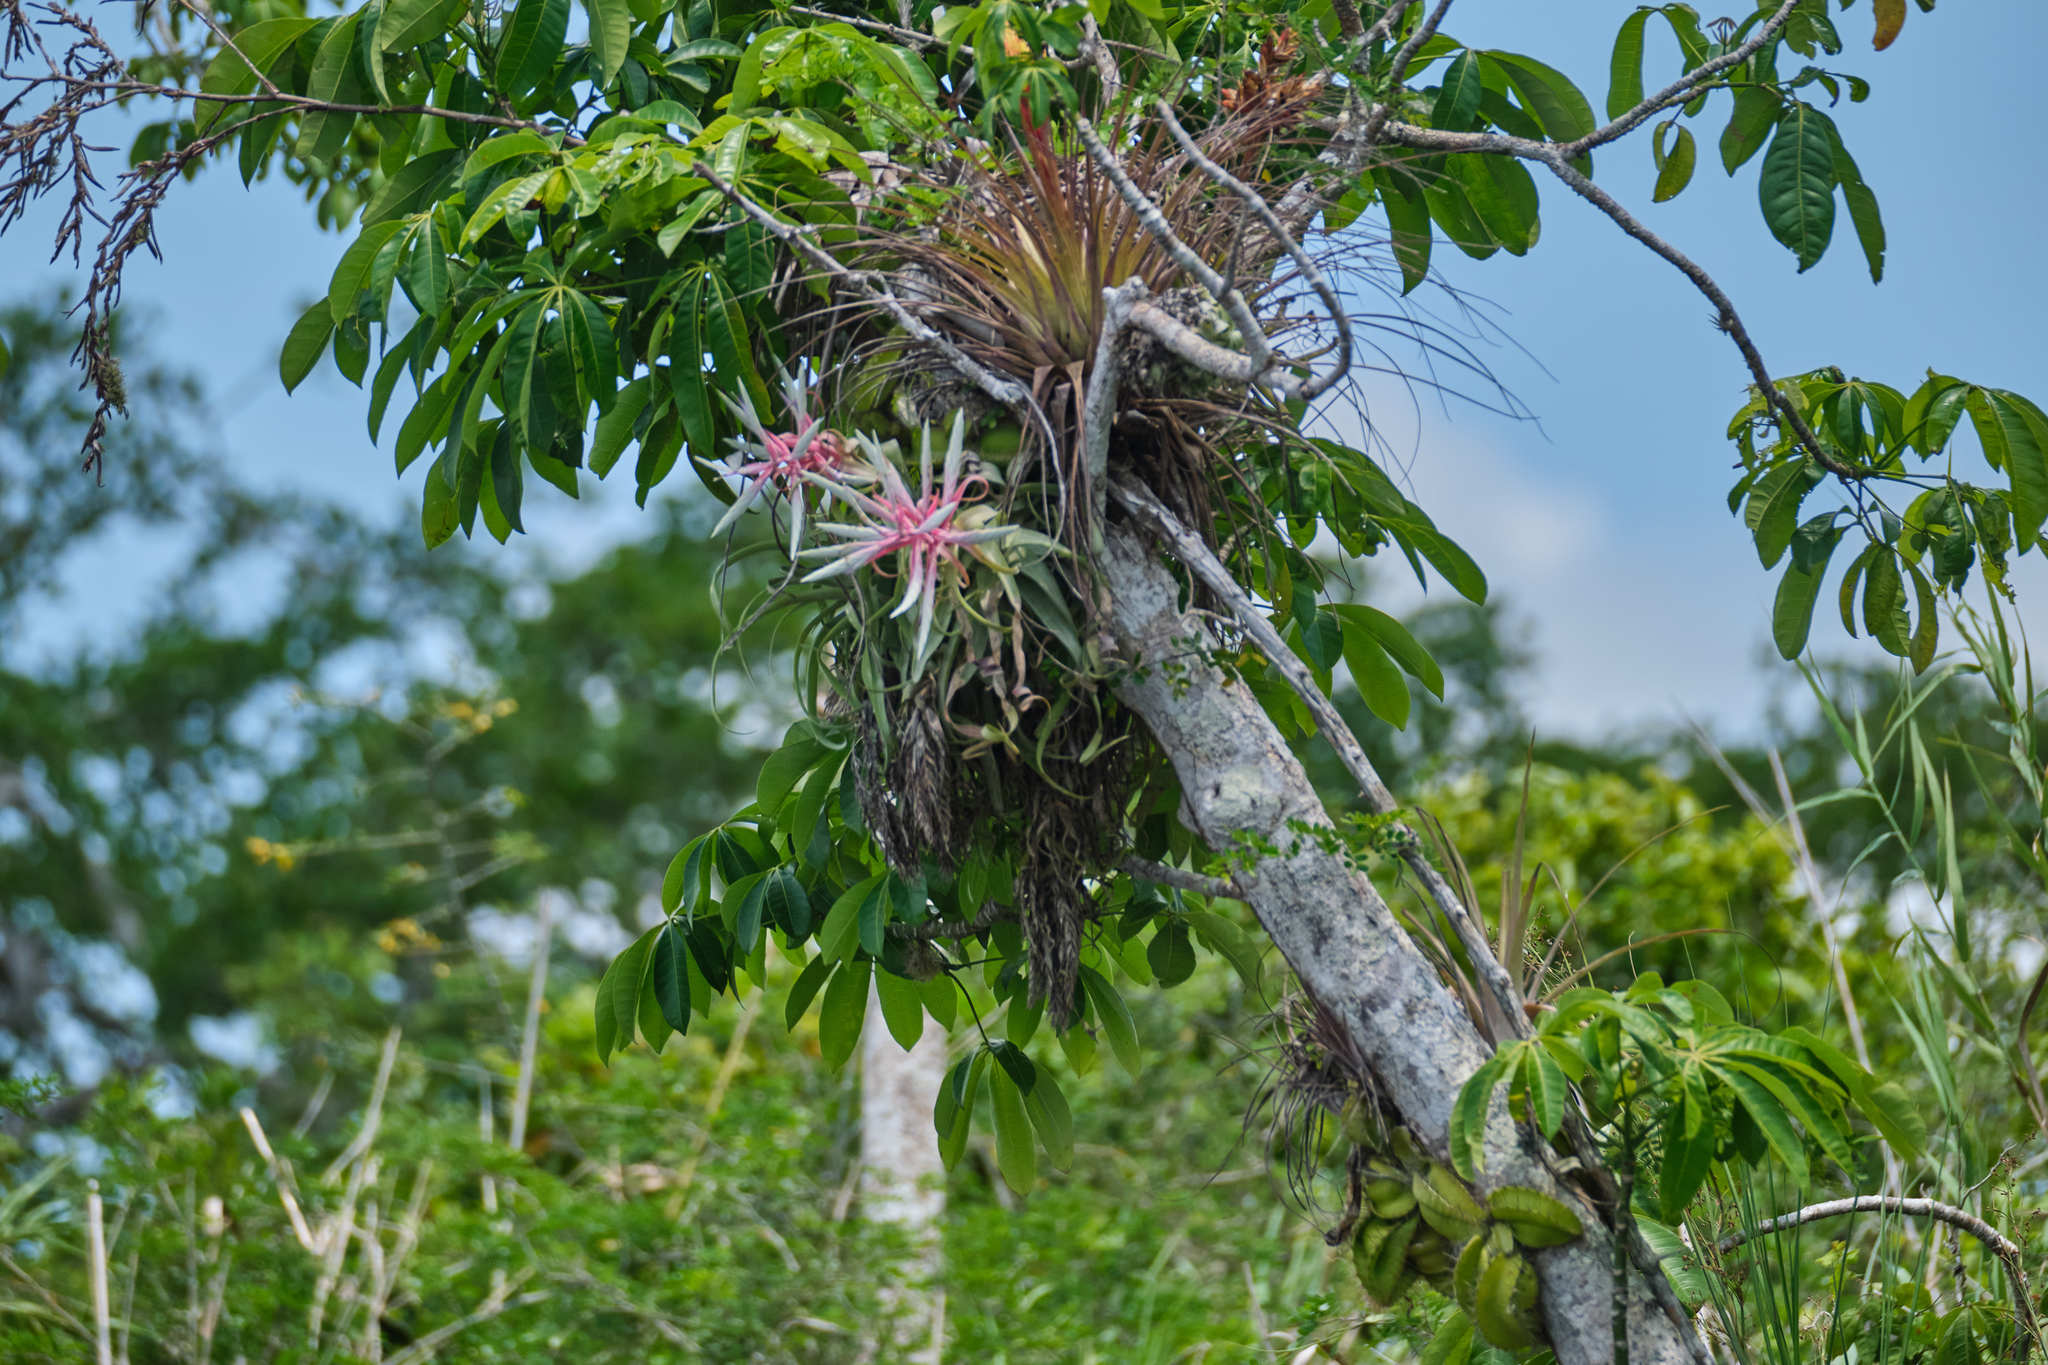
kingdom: Plantae
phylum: Tracheophyta
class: Liliopsida
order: Poales
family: Bromeliaceae
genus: Tillandsia
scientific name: Tillandsia streptophylla
